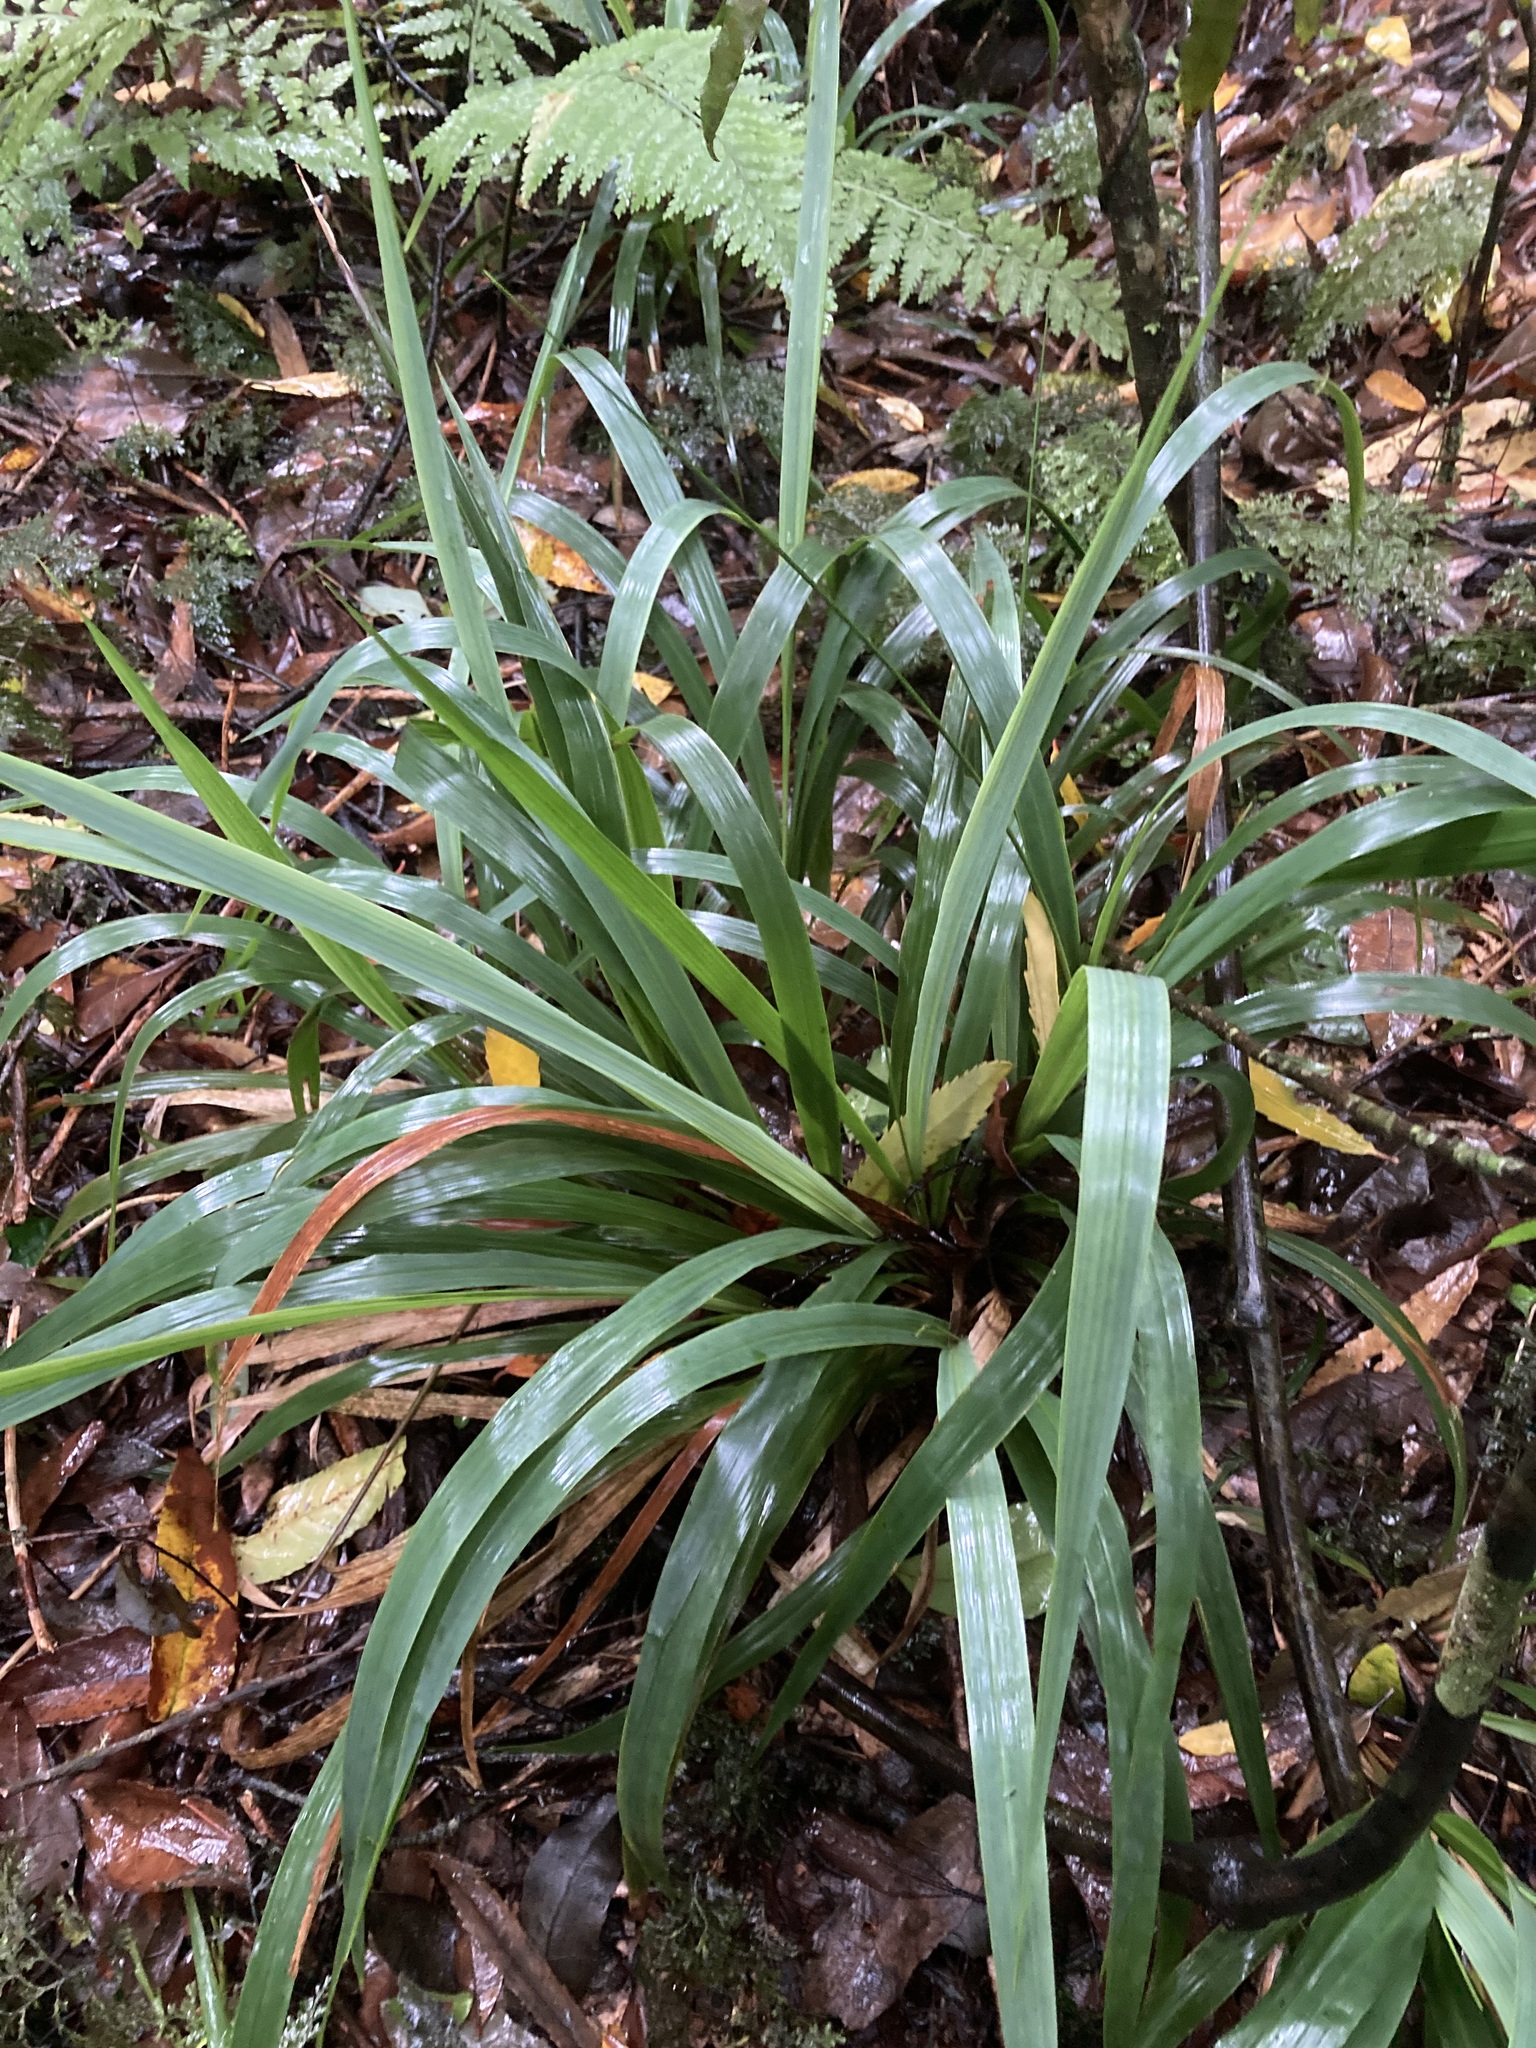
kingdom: Plantae
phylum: Tracheophyta
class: Liliopsida
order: Poales
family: Poaceae
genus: Ehrharta
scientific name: Ehrharta diplax
